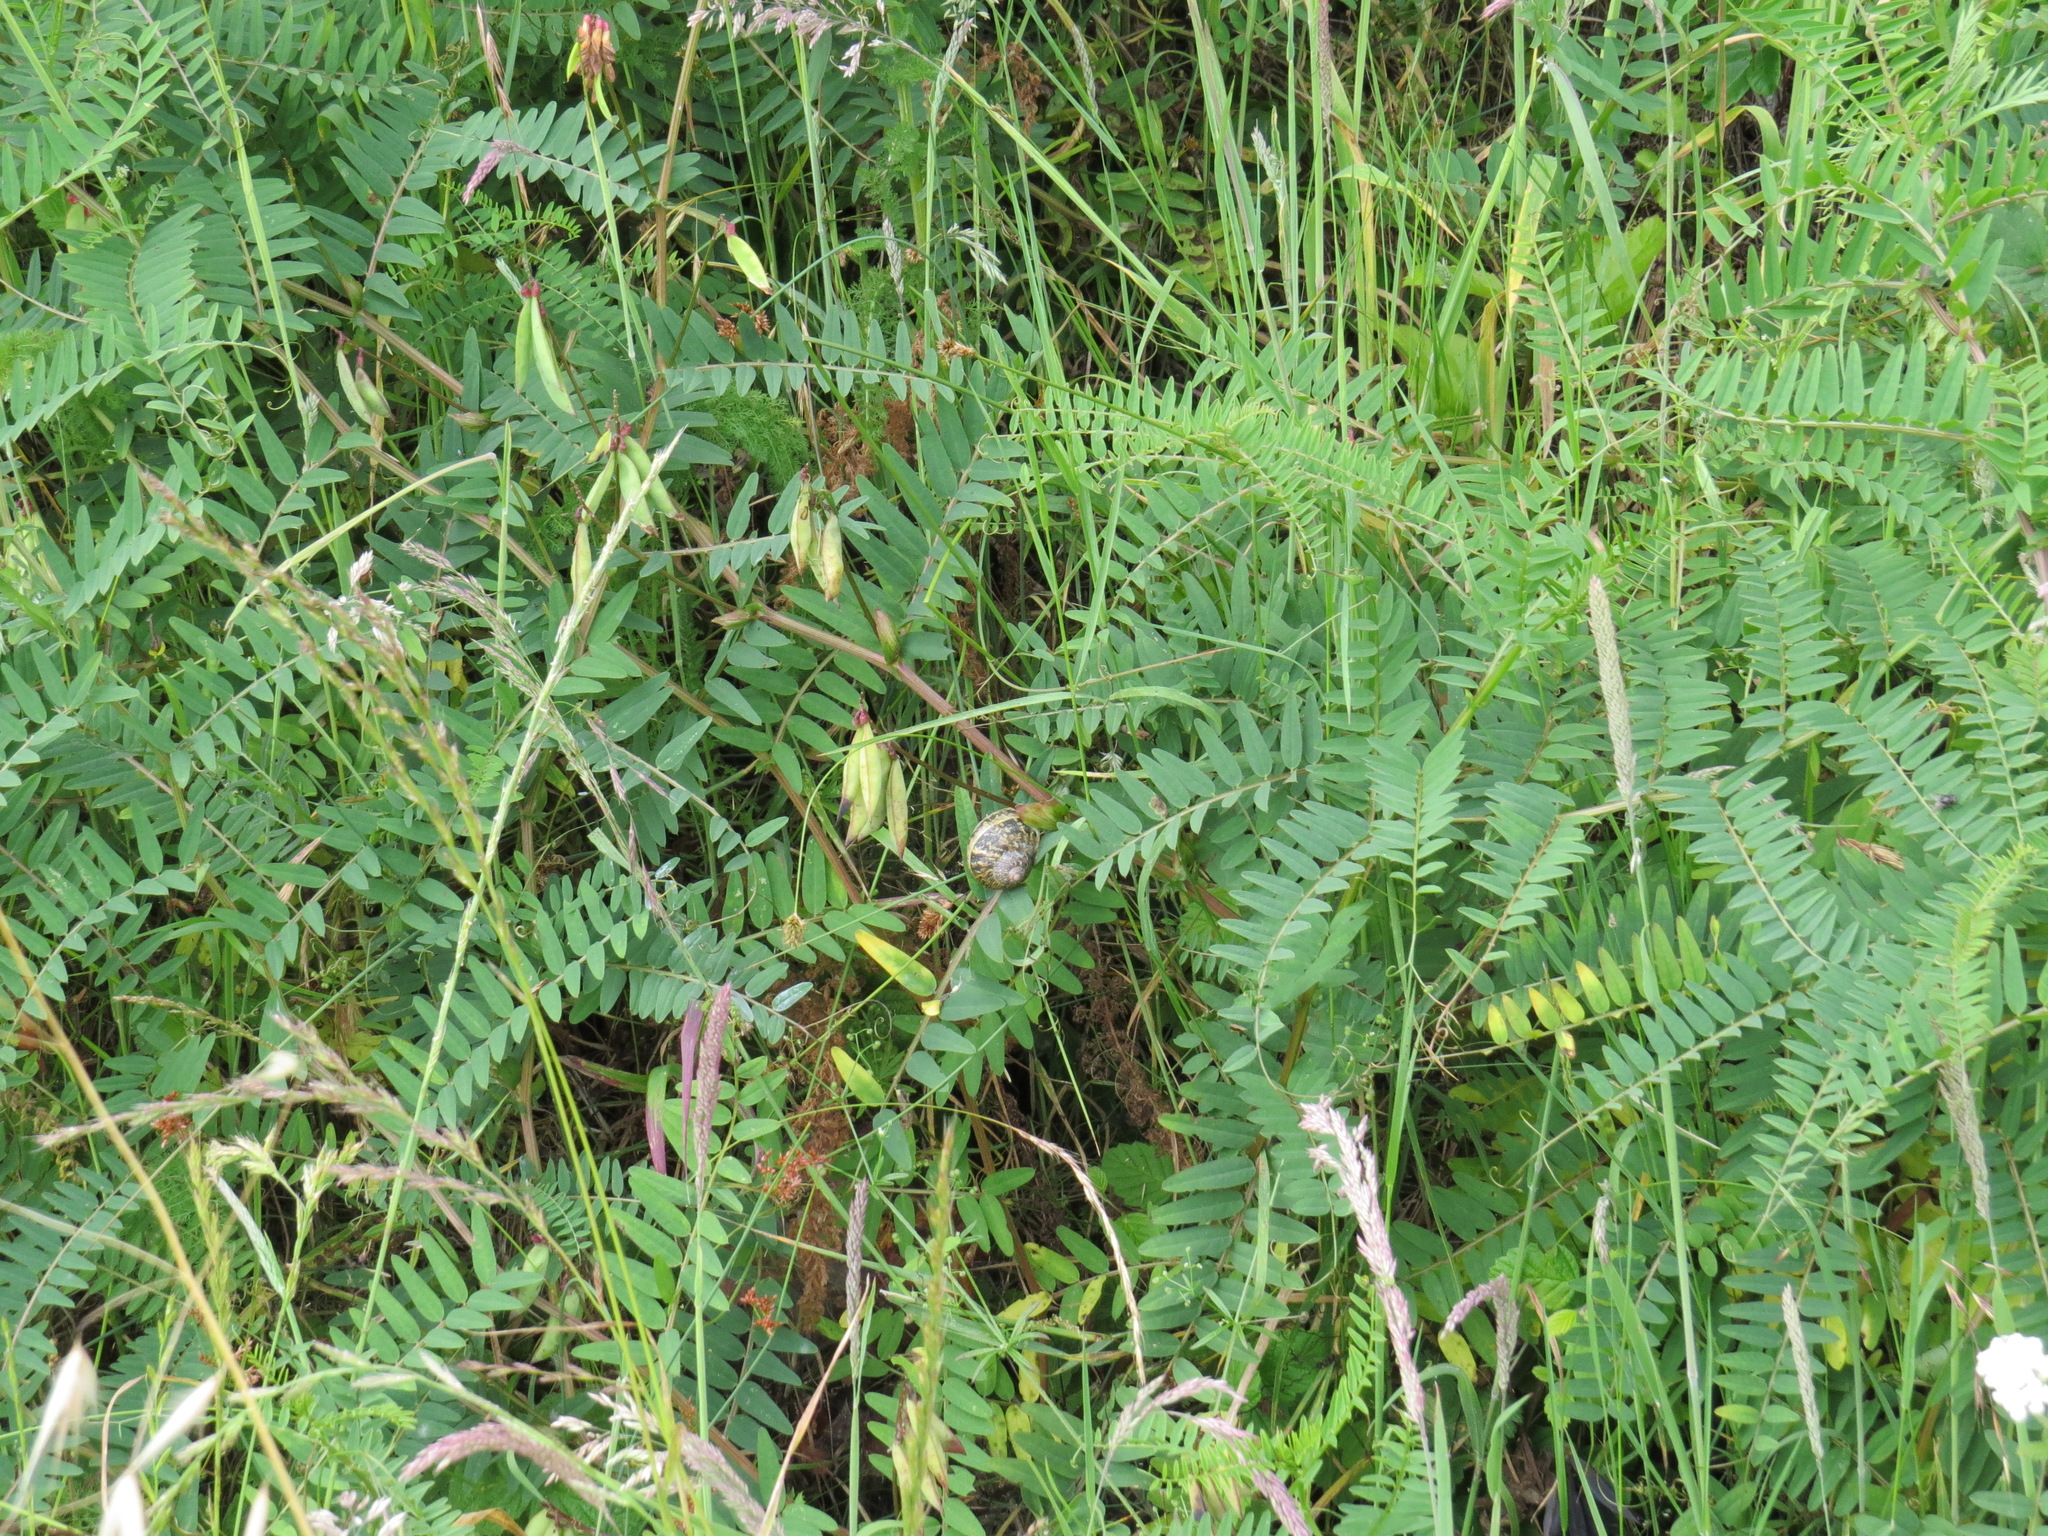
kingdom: Animalia
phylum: Mollusca
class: Gastropoda
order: Stylommatophora
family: Helicidae
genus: Cornu
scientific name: Cornu aspersum
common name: Brown garden snail
